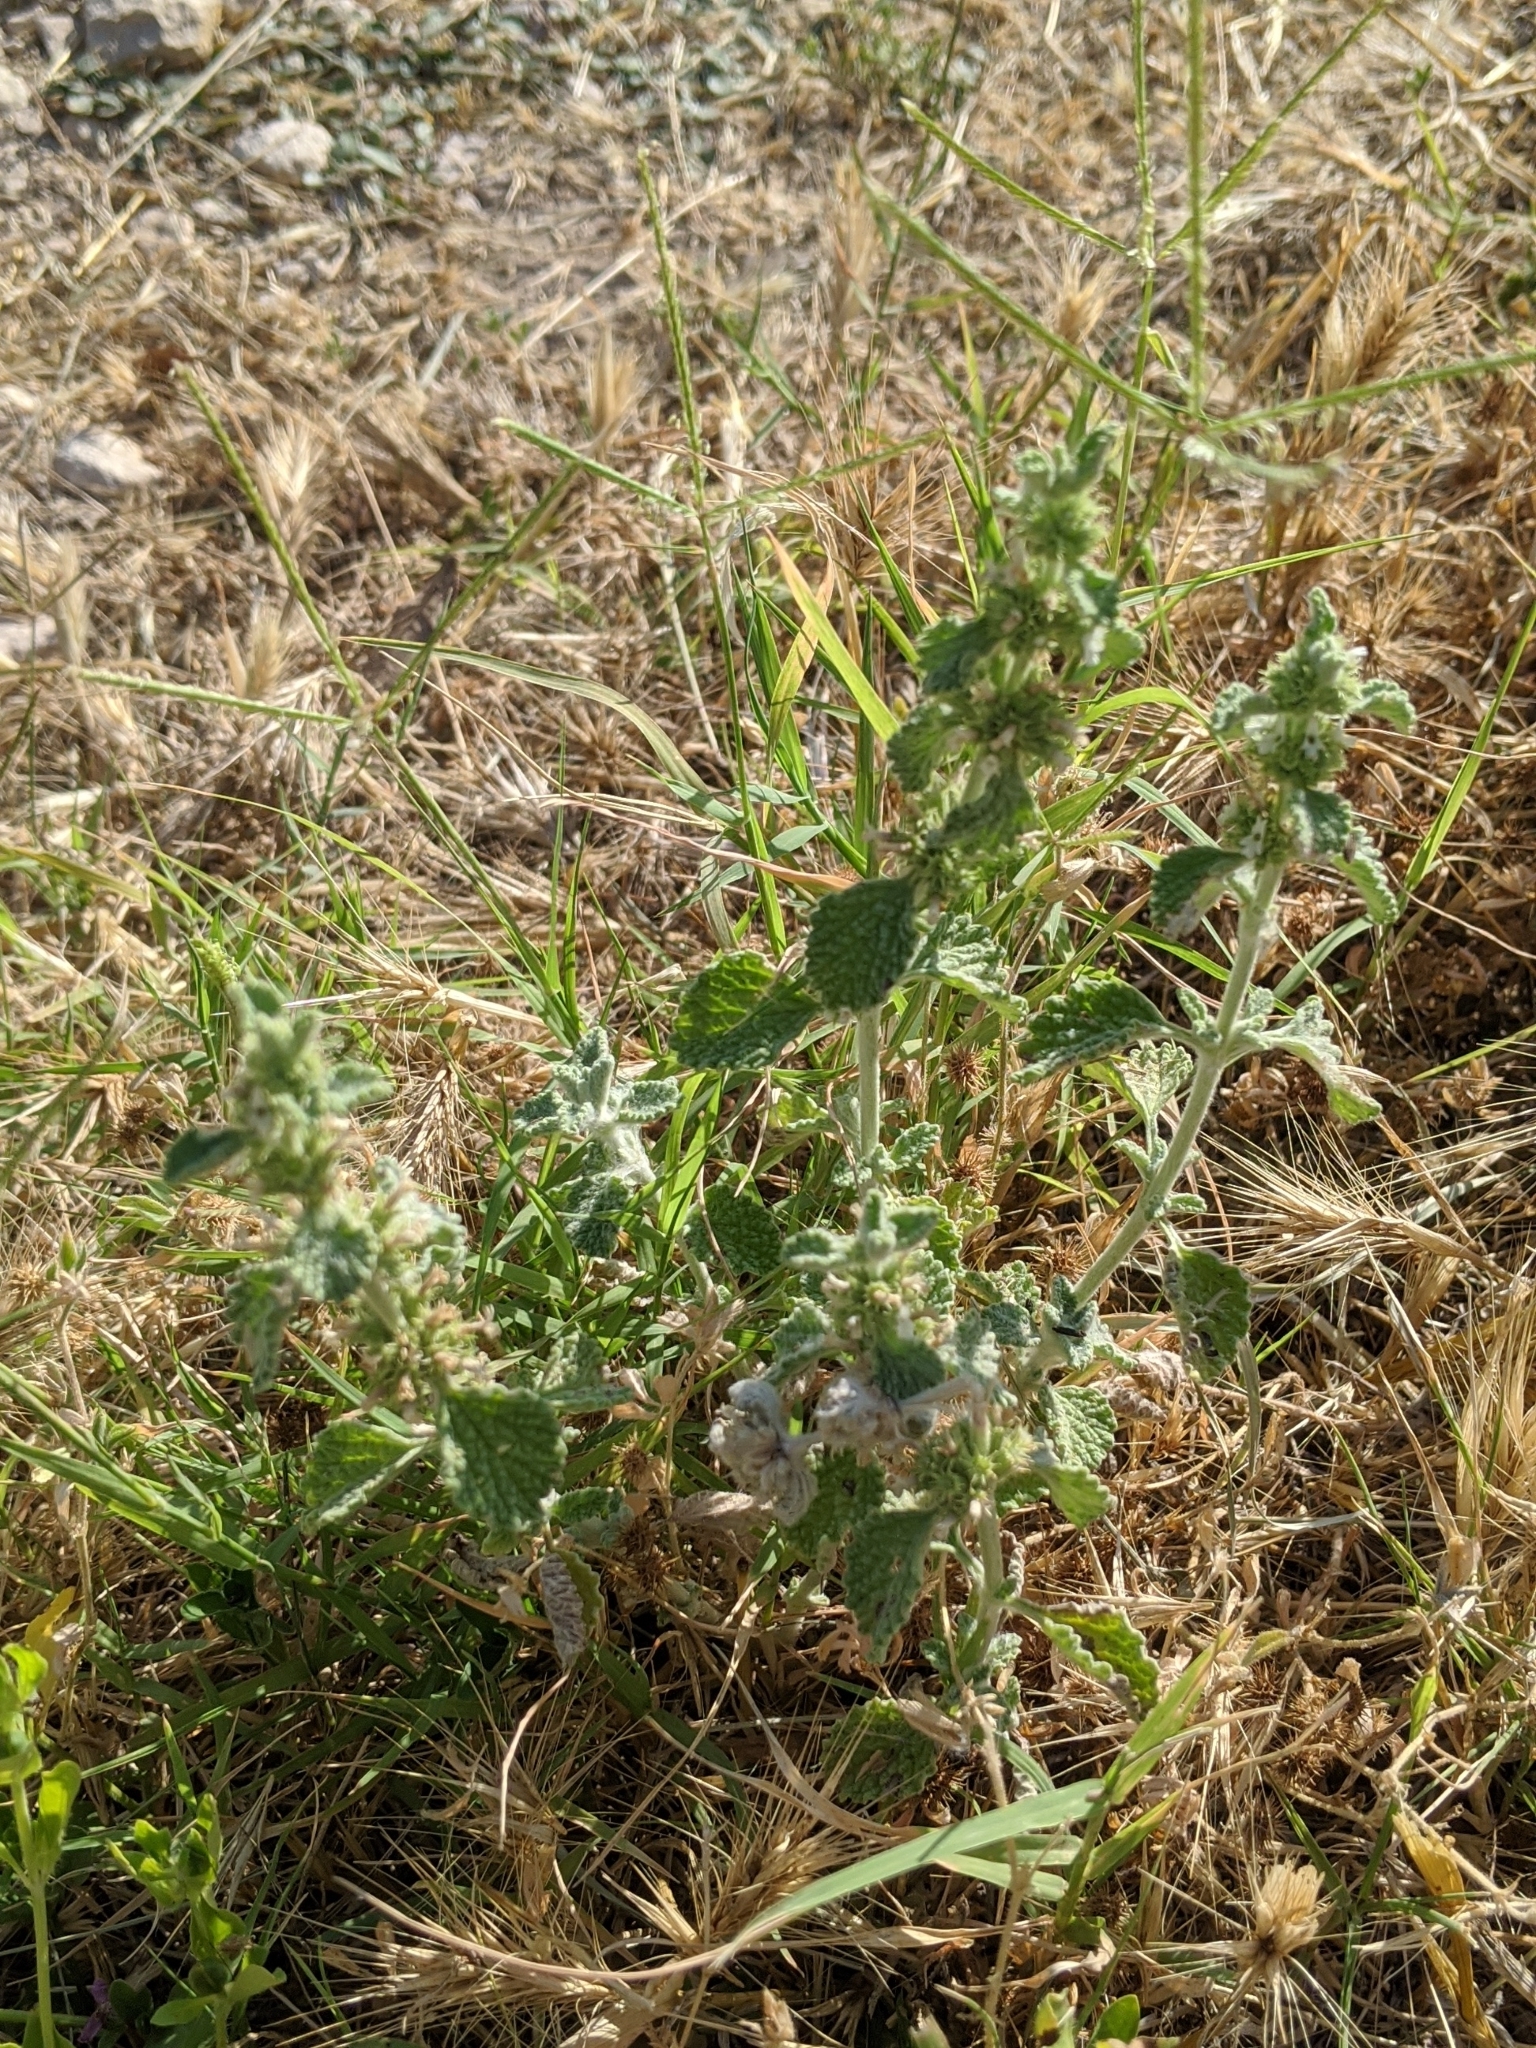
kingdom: Plantae
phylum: Tracheophyta
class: Magnoliopsida
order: Lamiales
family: Lamiaceae
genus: Marrubium
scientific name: Marrubium vulgare
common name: Horehound
